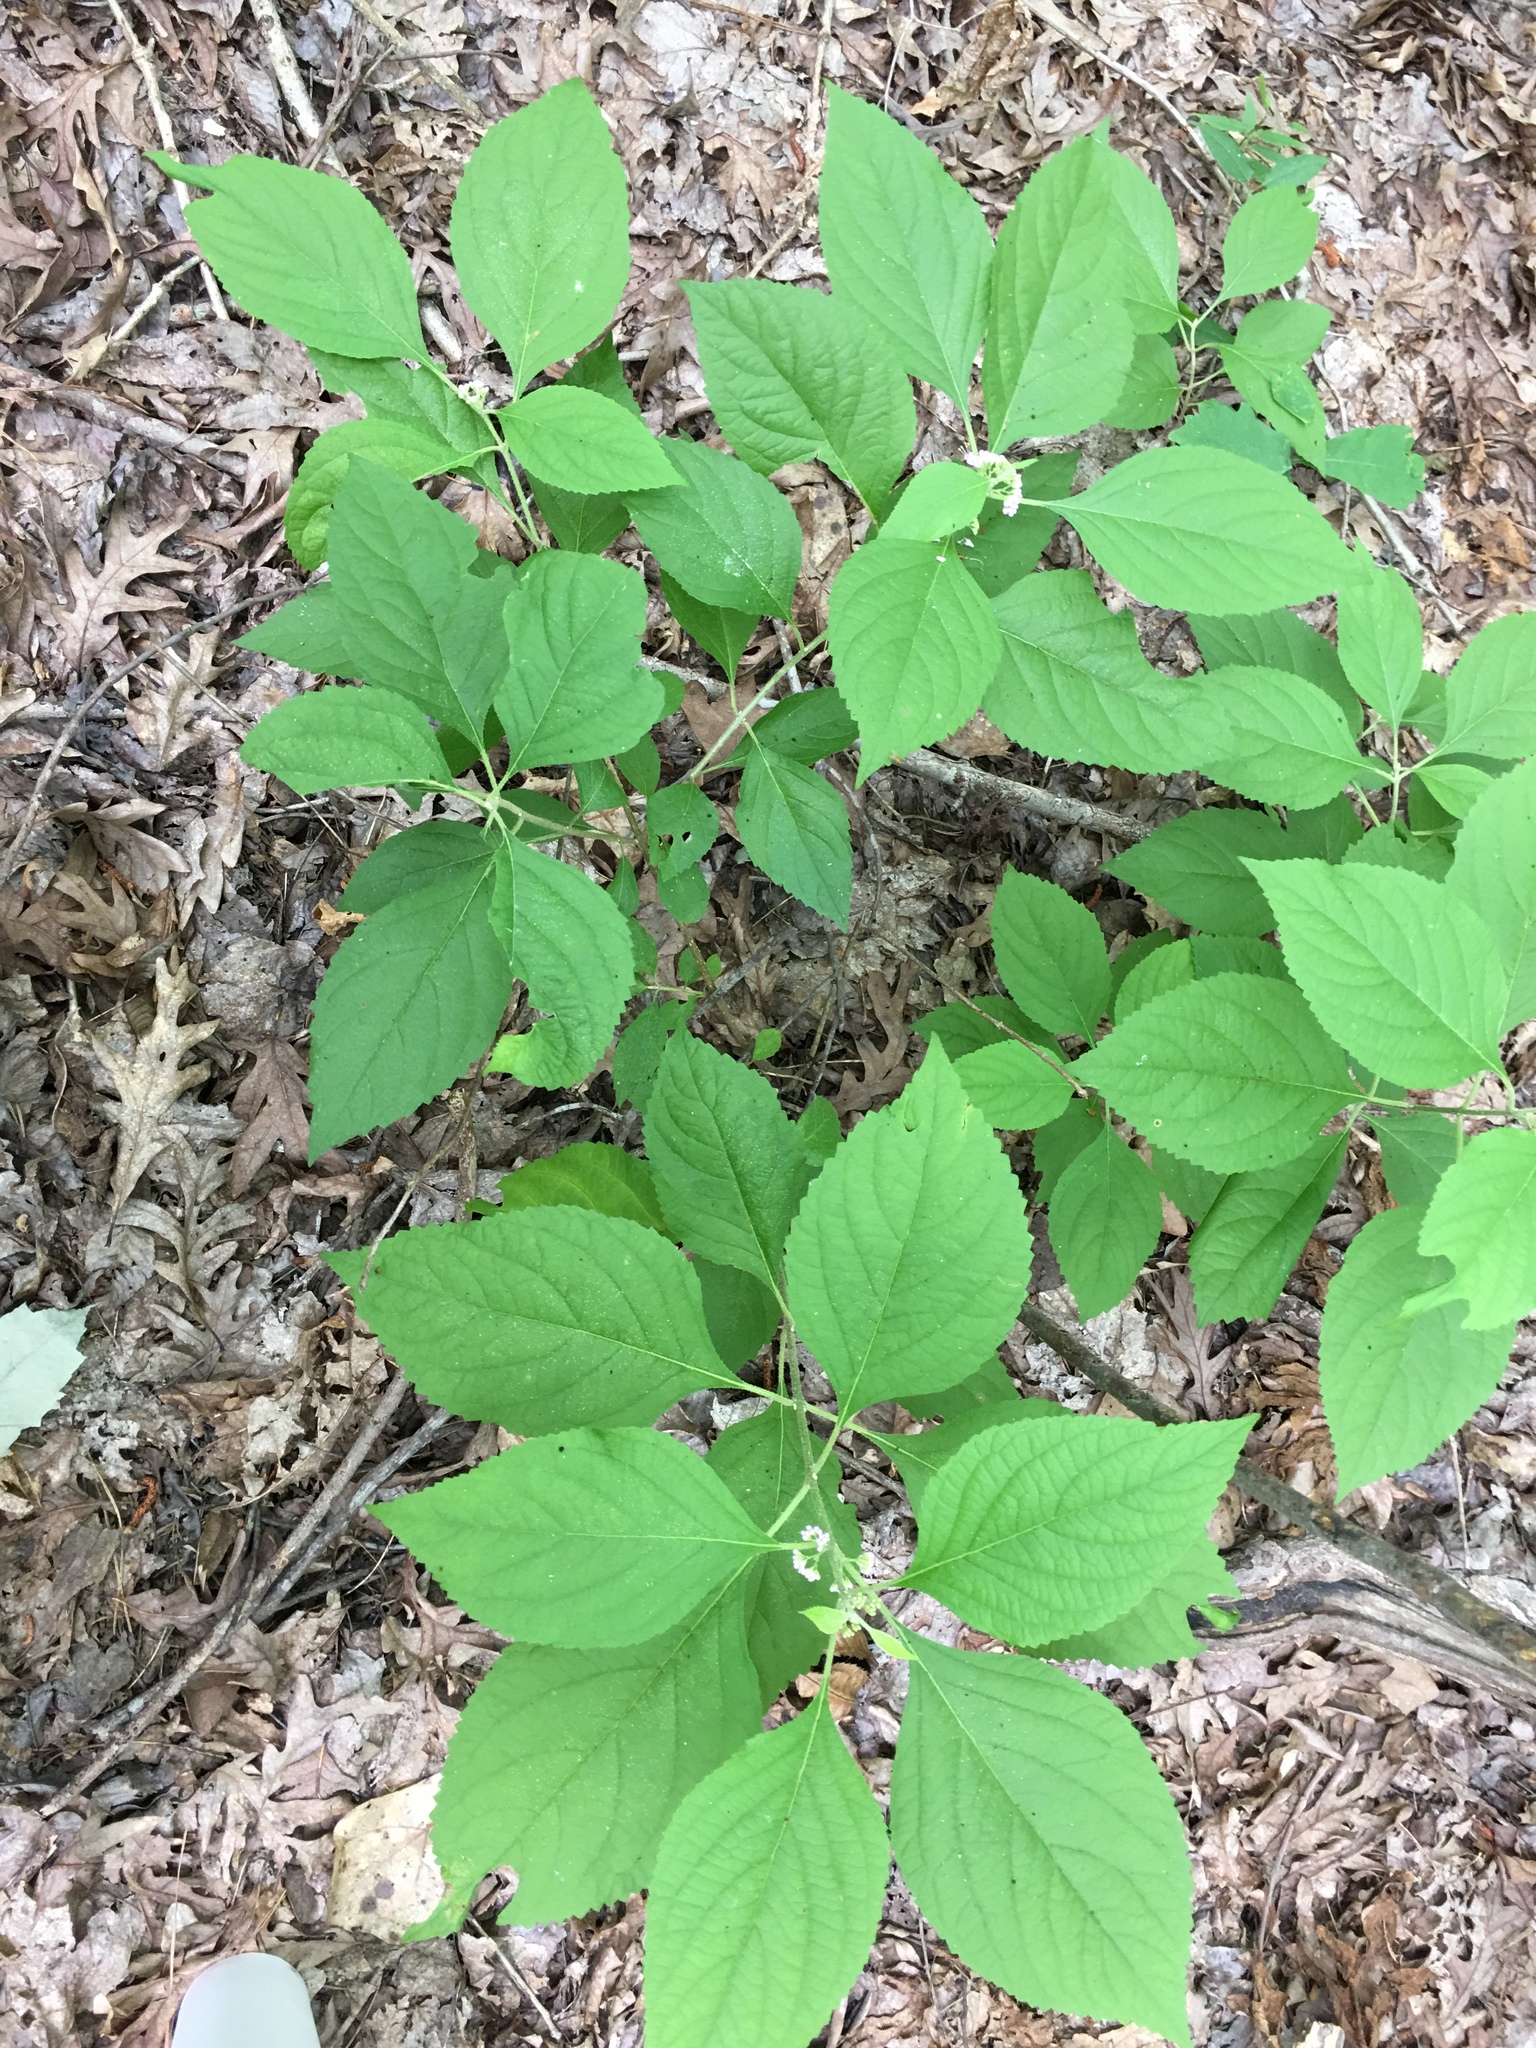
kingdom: Plantae
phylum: Tracheophyta
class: Magnoliopsida
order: Lamiales
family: Lamiaceae
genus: Callicarpa
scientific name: Callicarpa americana
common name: American beautyberry
